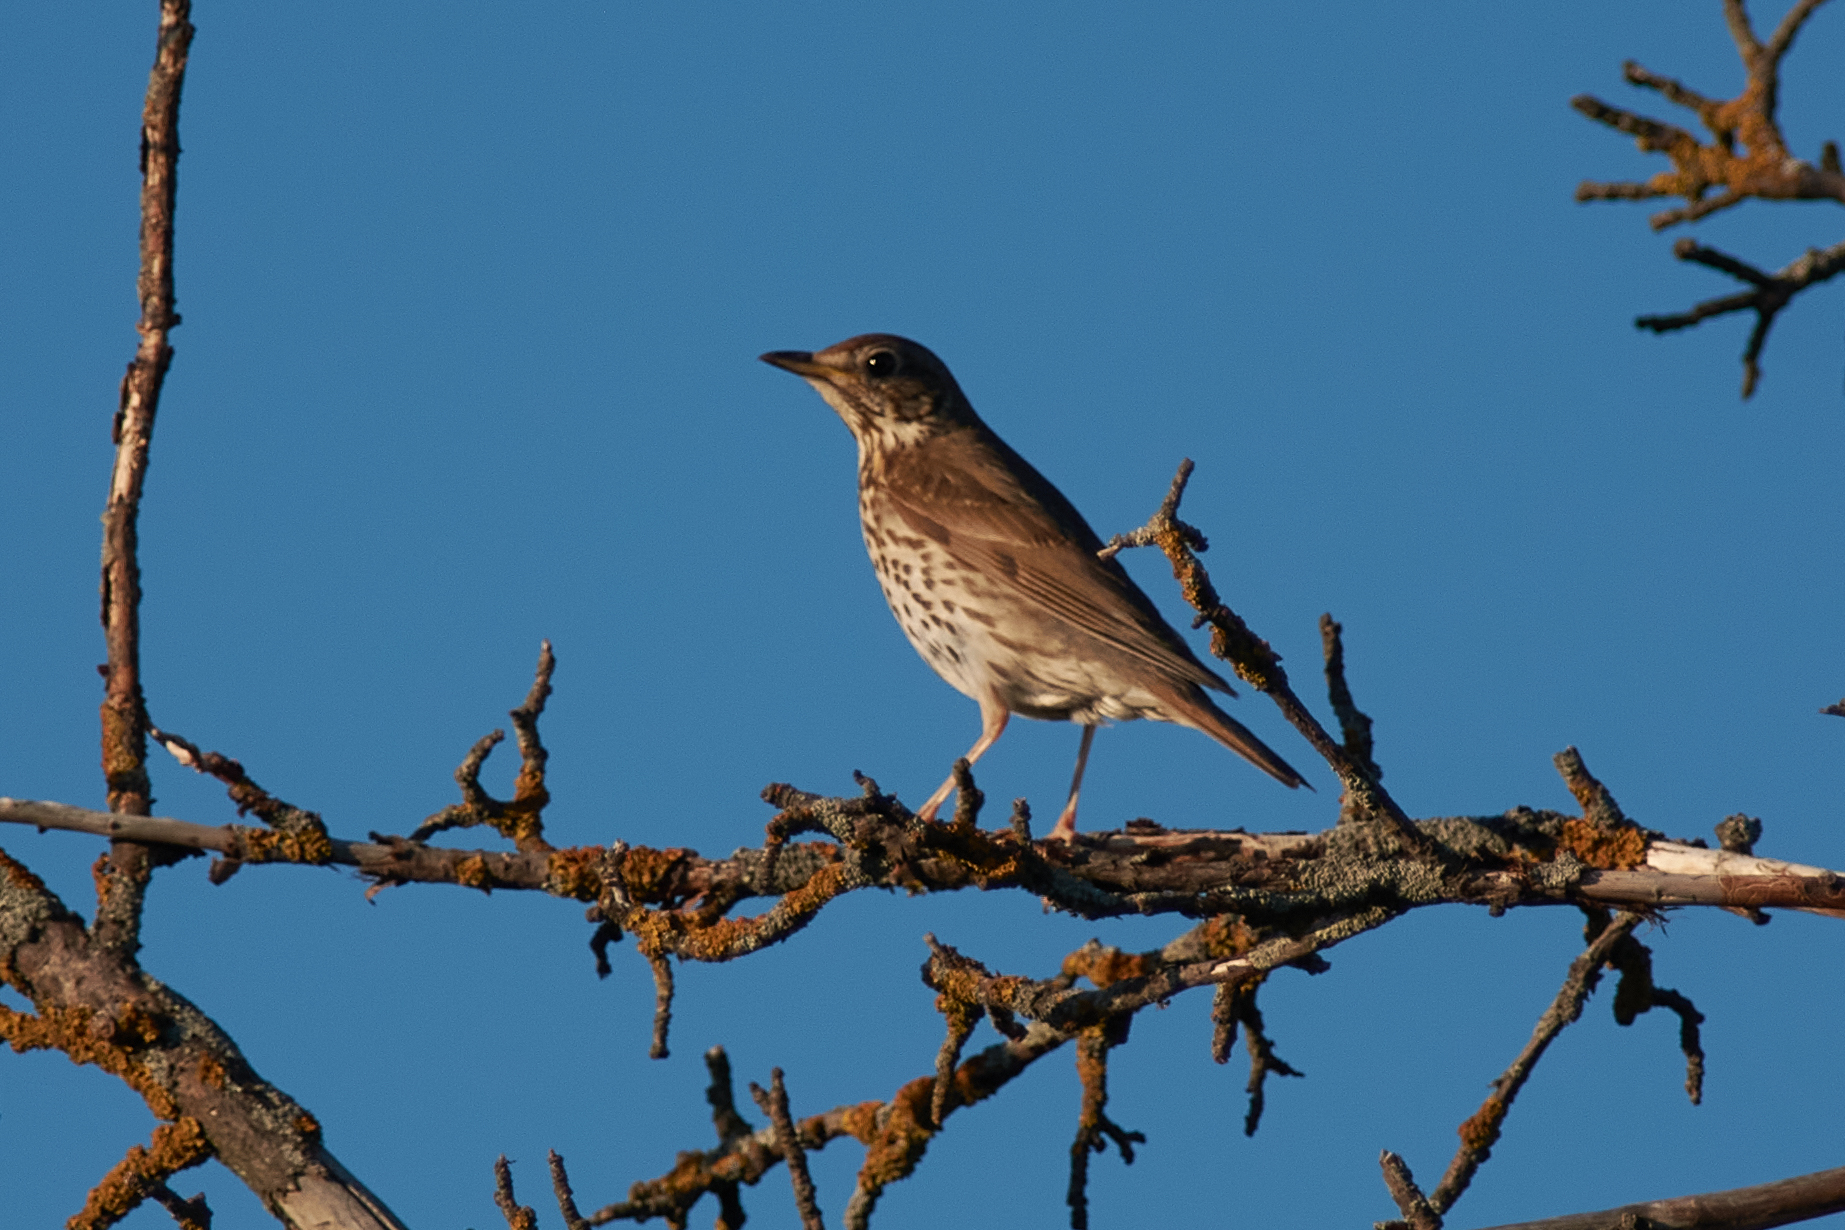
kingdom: Animalia
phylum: Chordata
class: Aves
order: Passeriformes
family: Turdidae
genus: Turdus
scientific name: Turdus philomelos
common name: Song thrush
